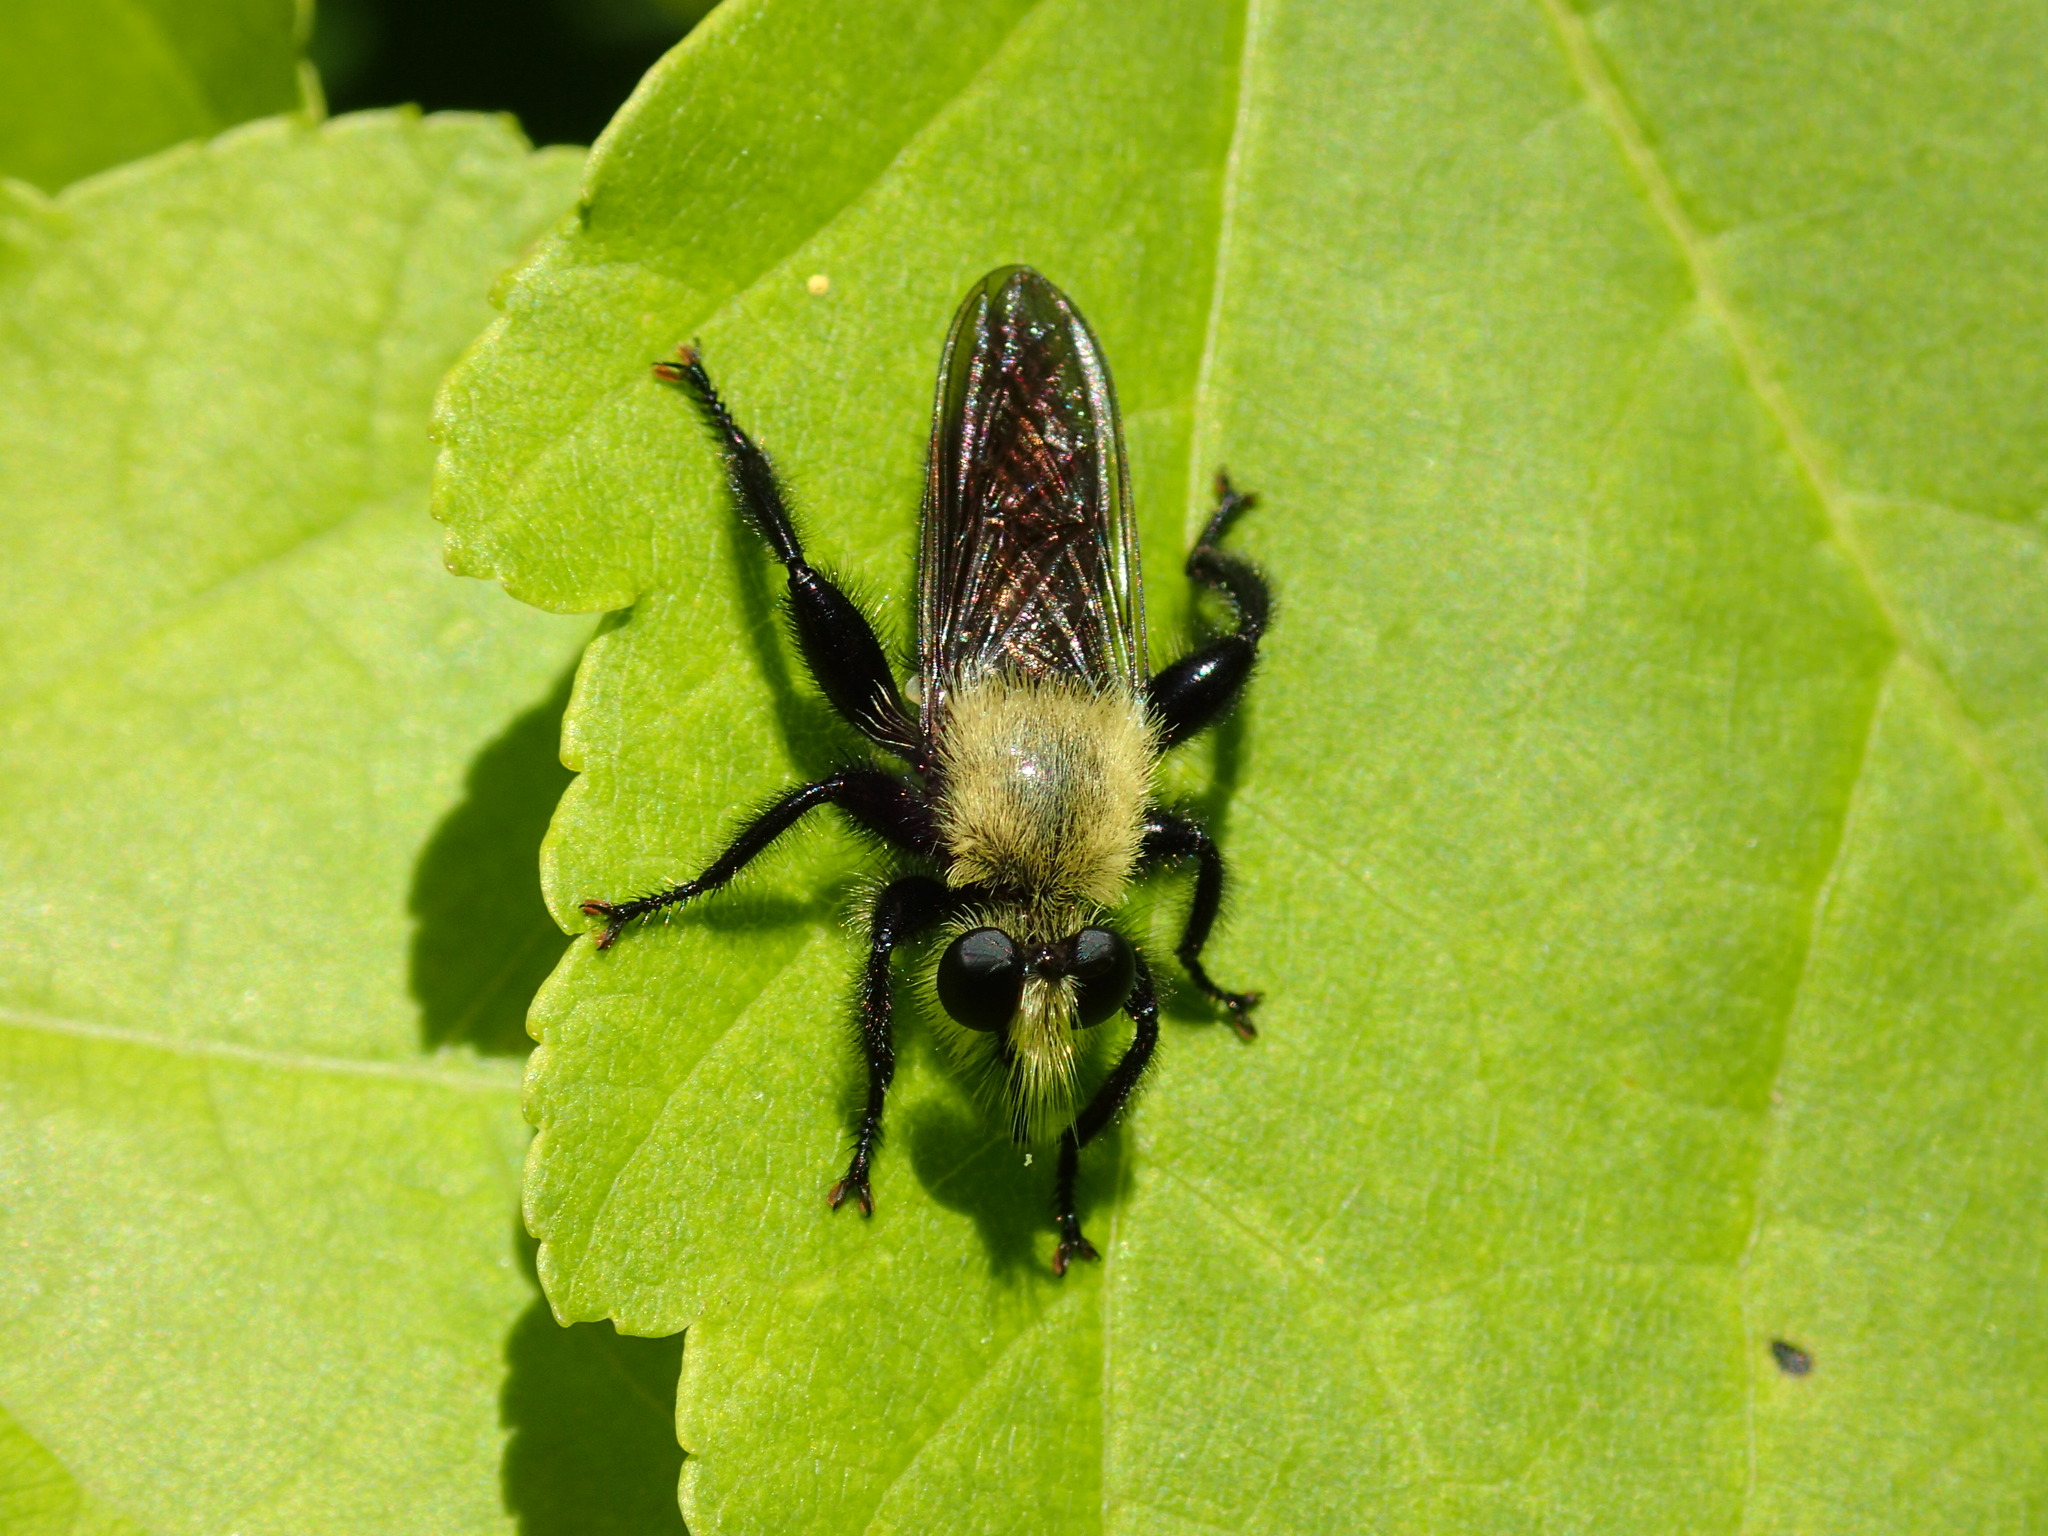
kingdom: Animalia
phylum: Arthropoda
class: Insecta
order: Diptera
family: Asilidae
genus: Laphria
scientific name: Laphria virginica
